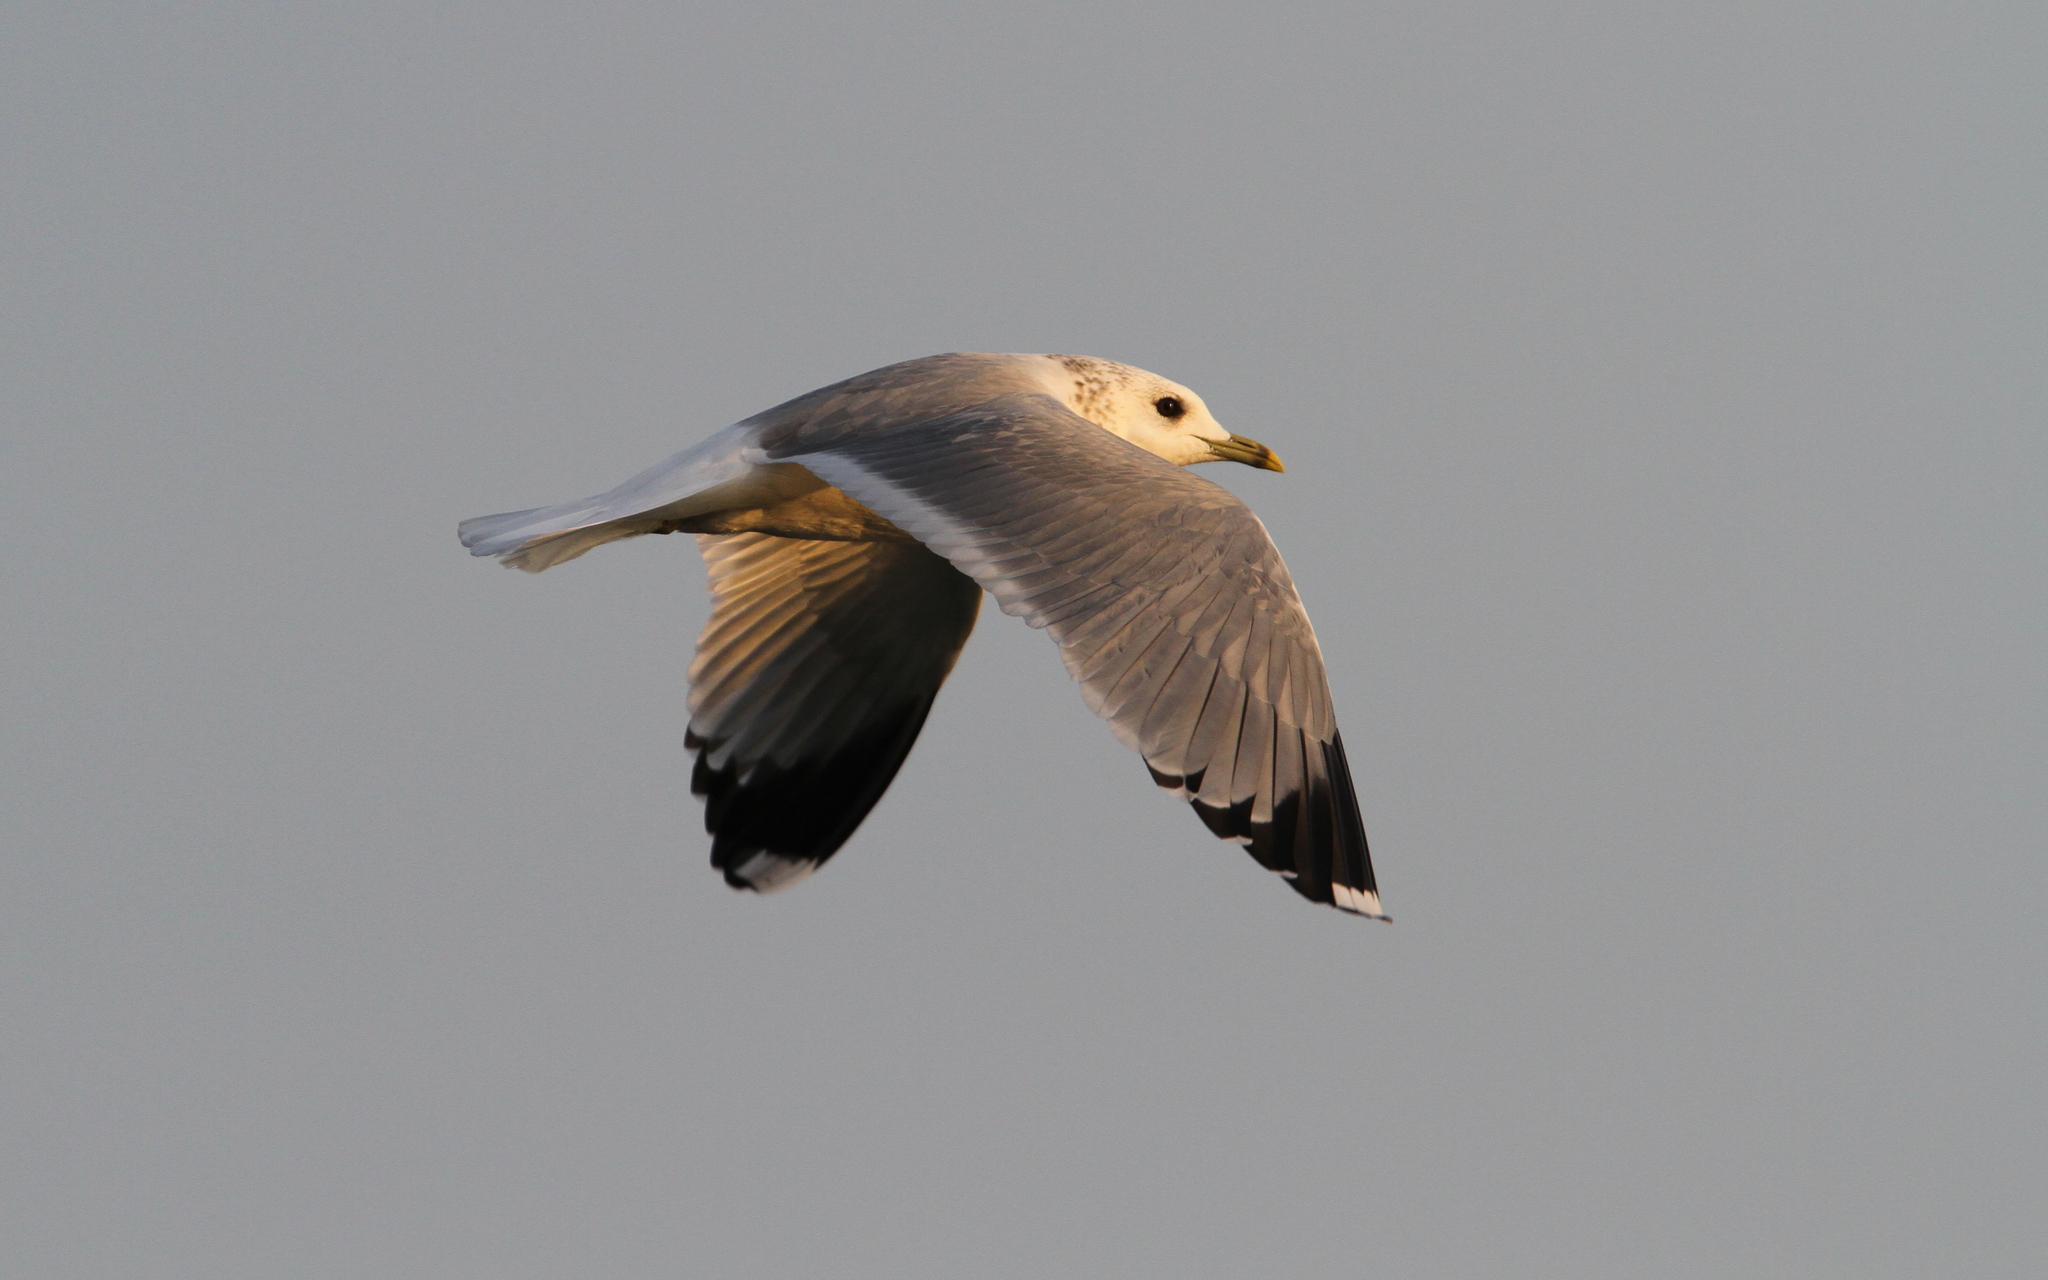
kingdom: Animalia
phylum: Chordata
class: Aves
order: Charadriiformes
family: Laridae
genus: Larus
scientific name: Larus canus
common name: Mew gull
